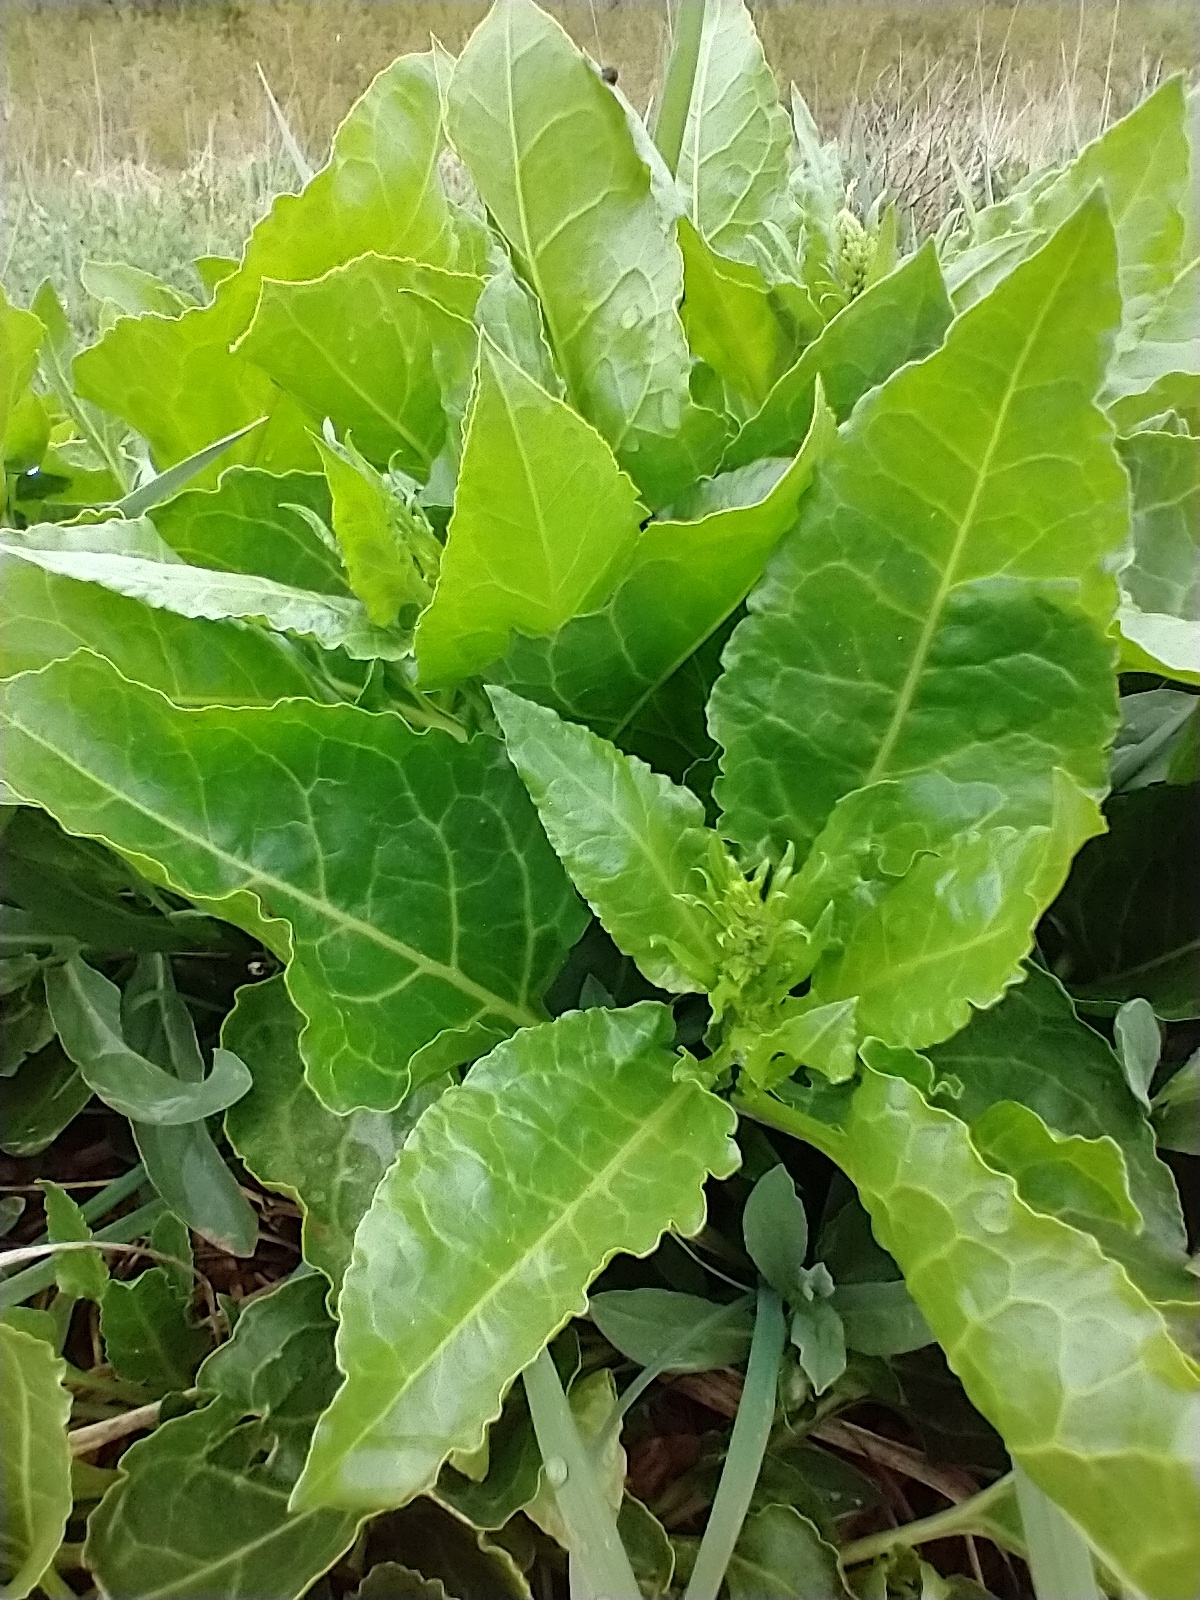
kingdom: Plantae
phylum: Tracheophyta
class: Magnoliopsida
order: Caryophyllales
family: Amaranthaceae
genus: Beta
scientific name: Beta vulgaris
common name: Beet
